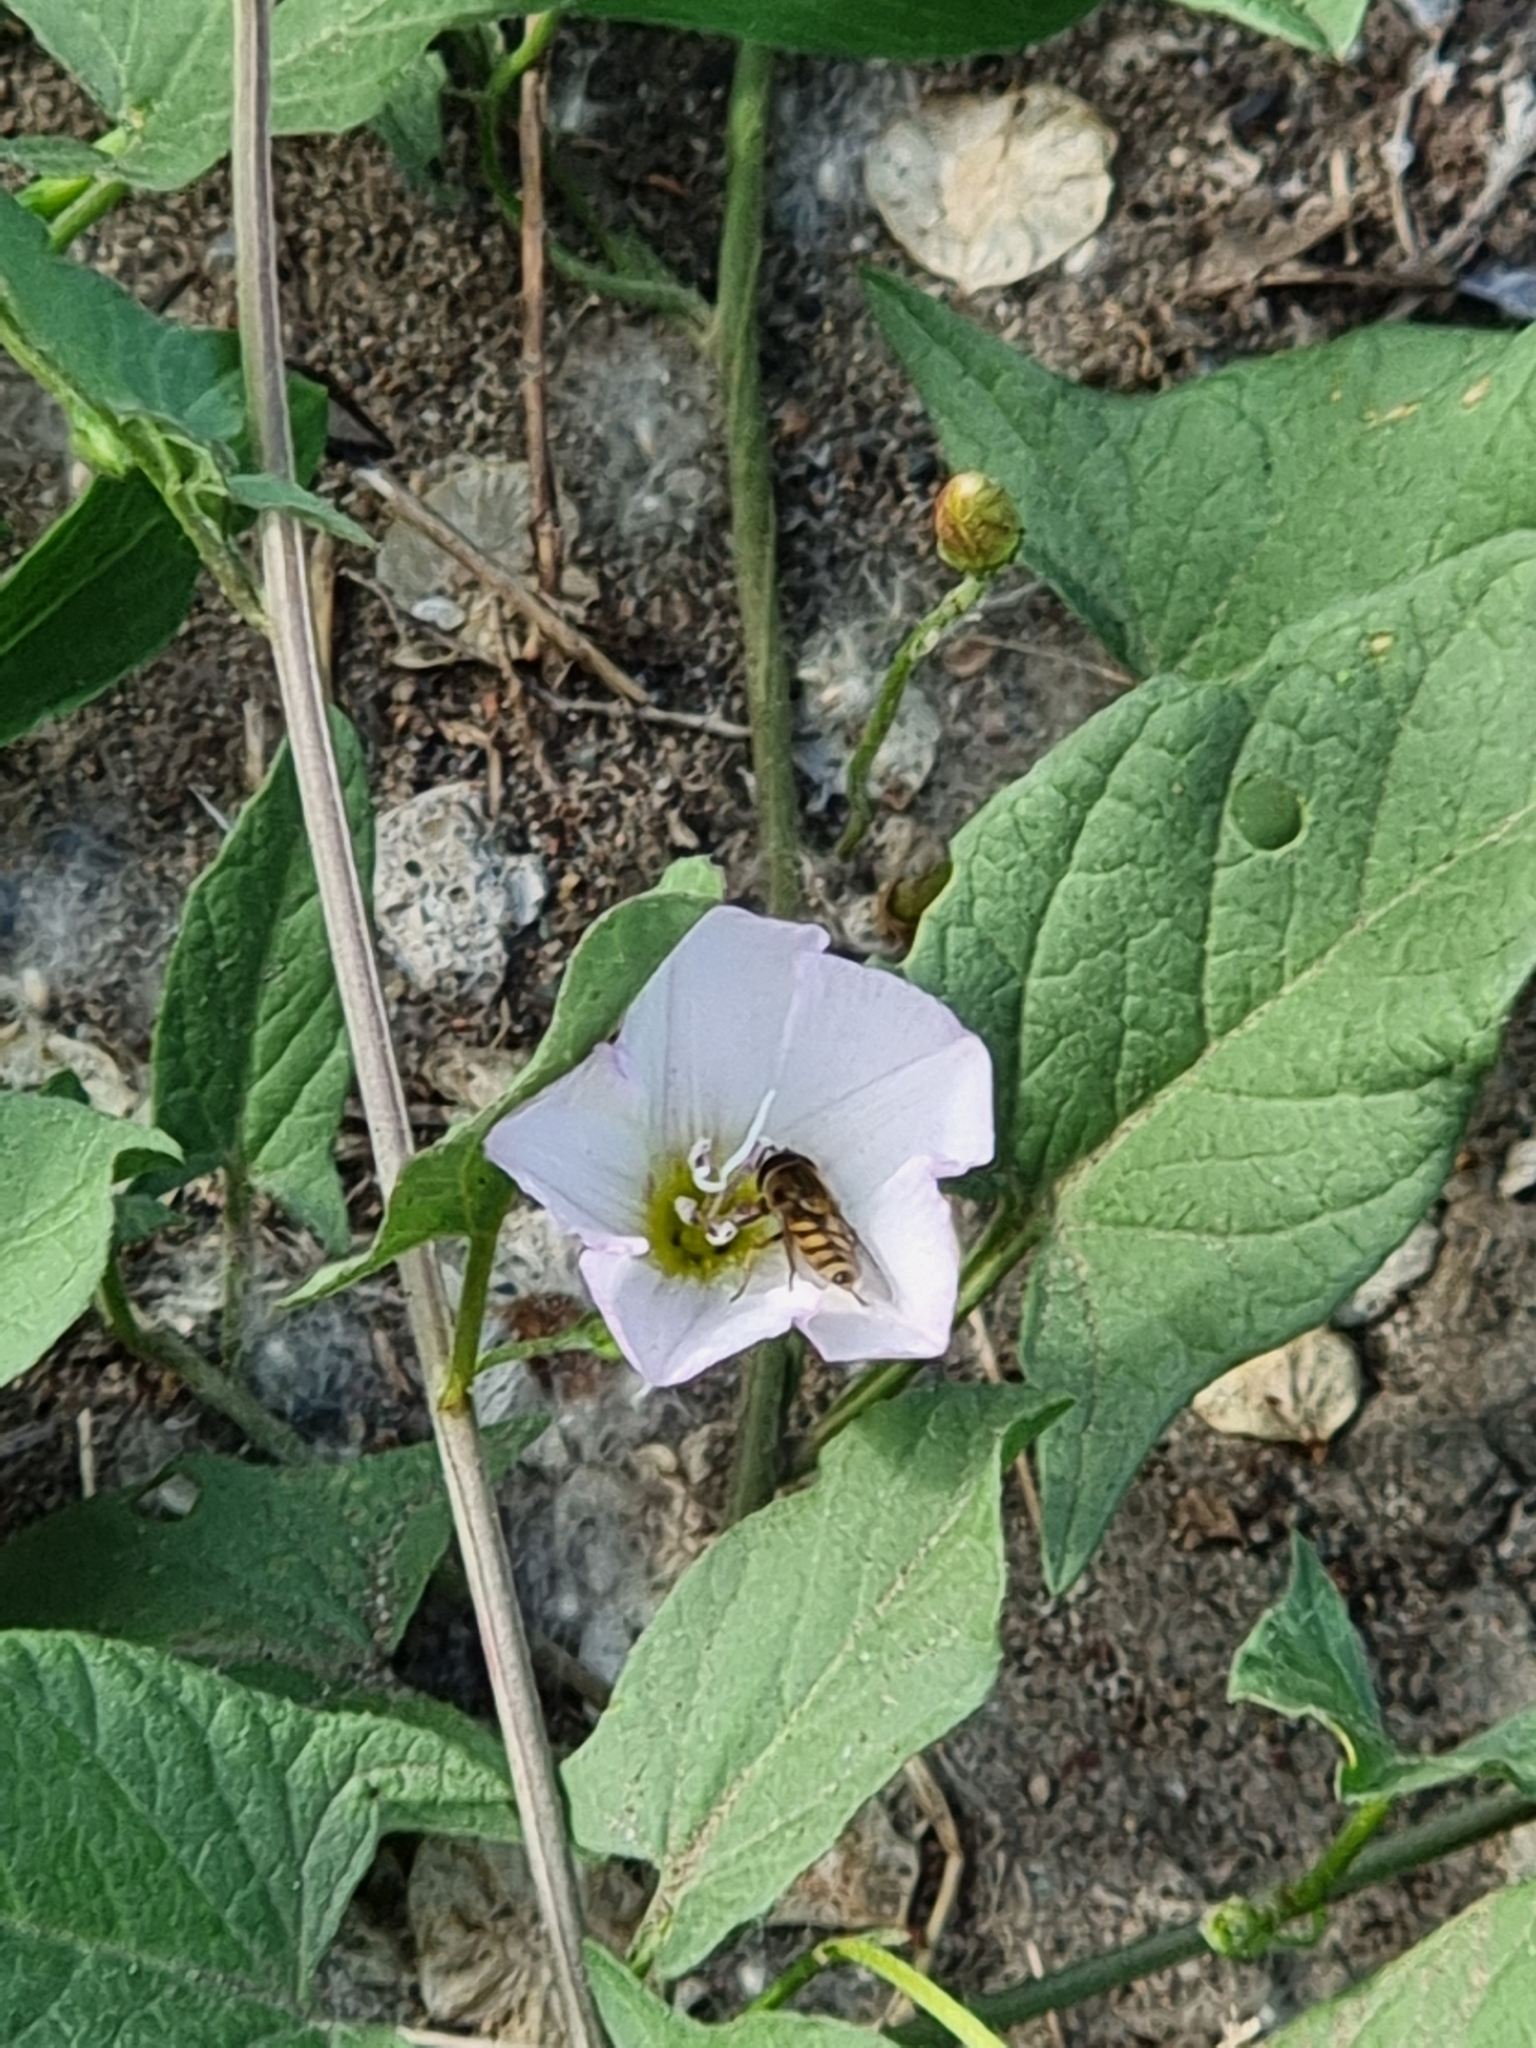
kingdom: Plantae
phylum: Tracheophyta
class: Magnoliopsida
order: Solanales
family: Convolvulaceae
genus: Convolvulus
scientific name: Convolvulus arvensis
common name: Field bindweed
